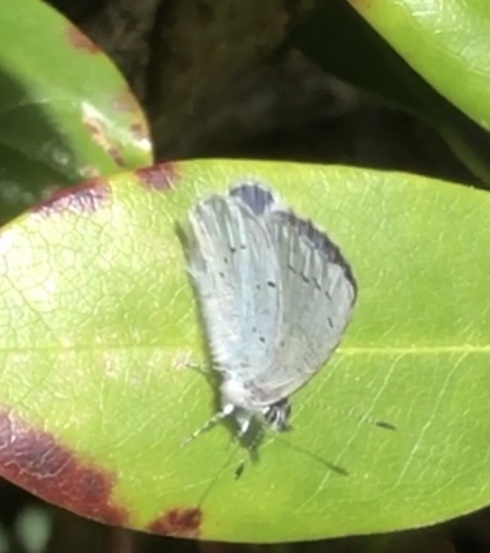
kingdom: Animalia
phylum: Arthropoda
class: Insecta
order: Lepidoptera
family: Lycaenidae
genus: Celastrina
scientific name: Celastrina argiolus
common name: Holly blue
